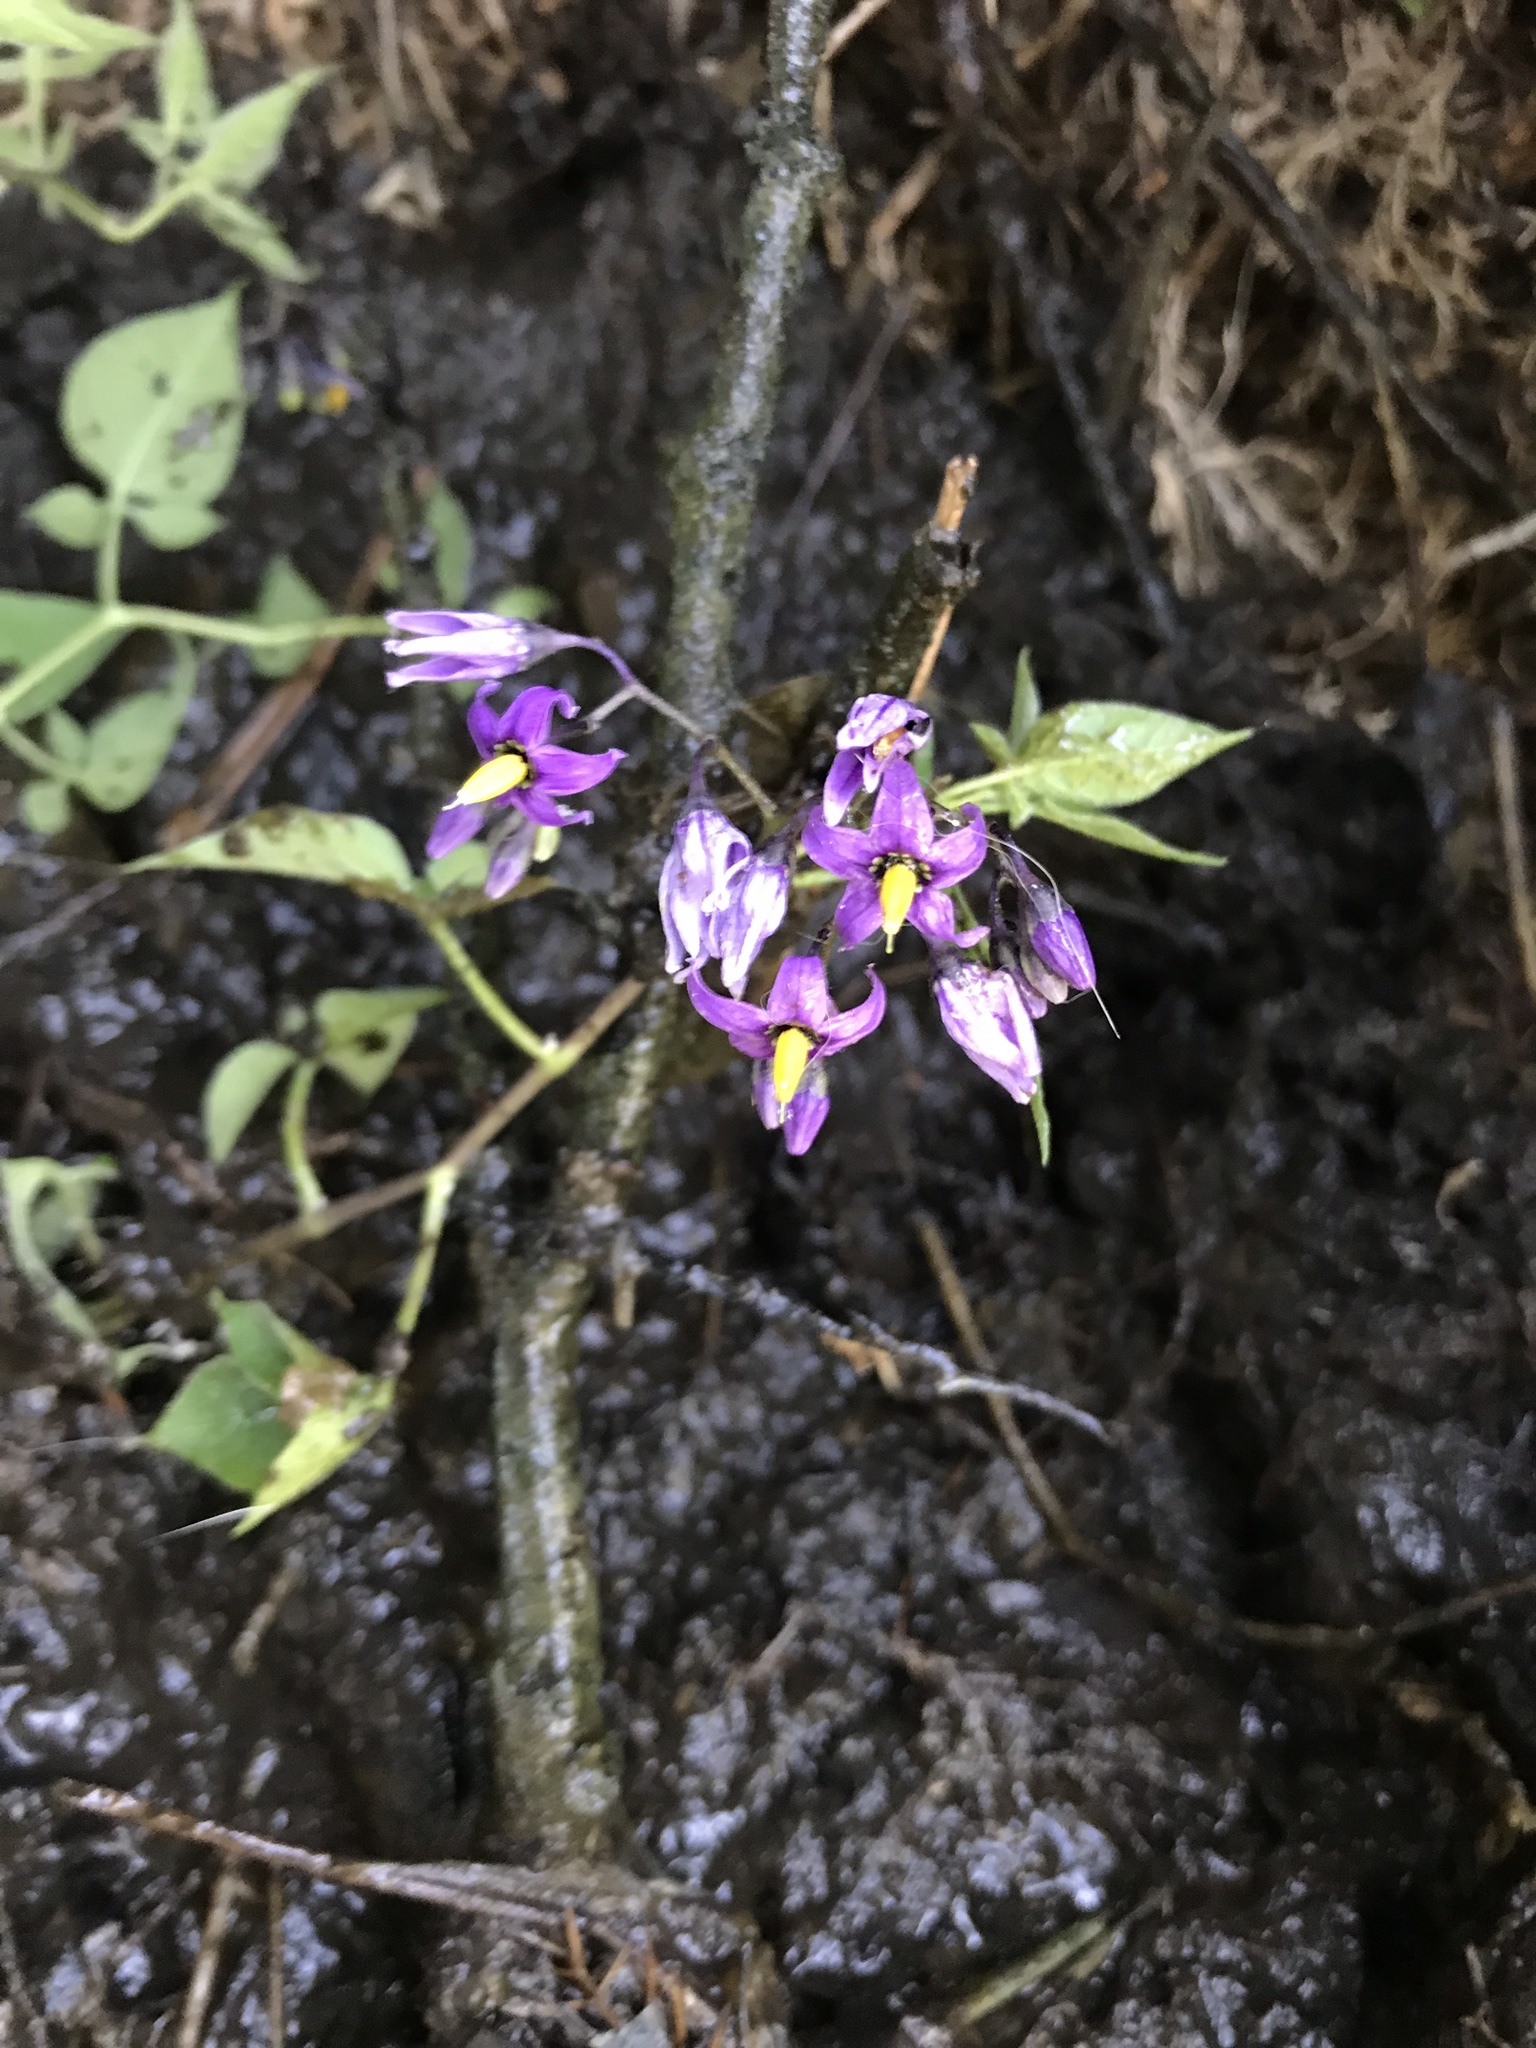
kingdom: Plantae
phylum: Tracheophyta
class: Magnoliopsida
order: Solanales
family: Solanaceae
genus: Solanum
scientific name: Solanum dulcamara
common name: Climbing nightshade
